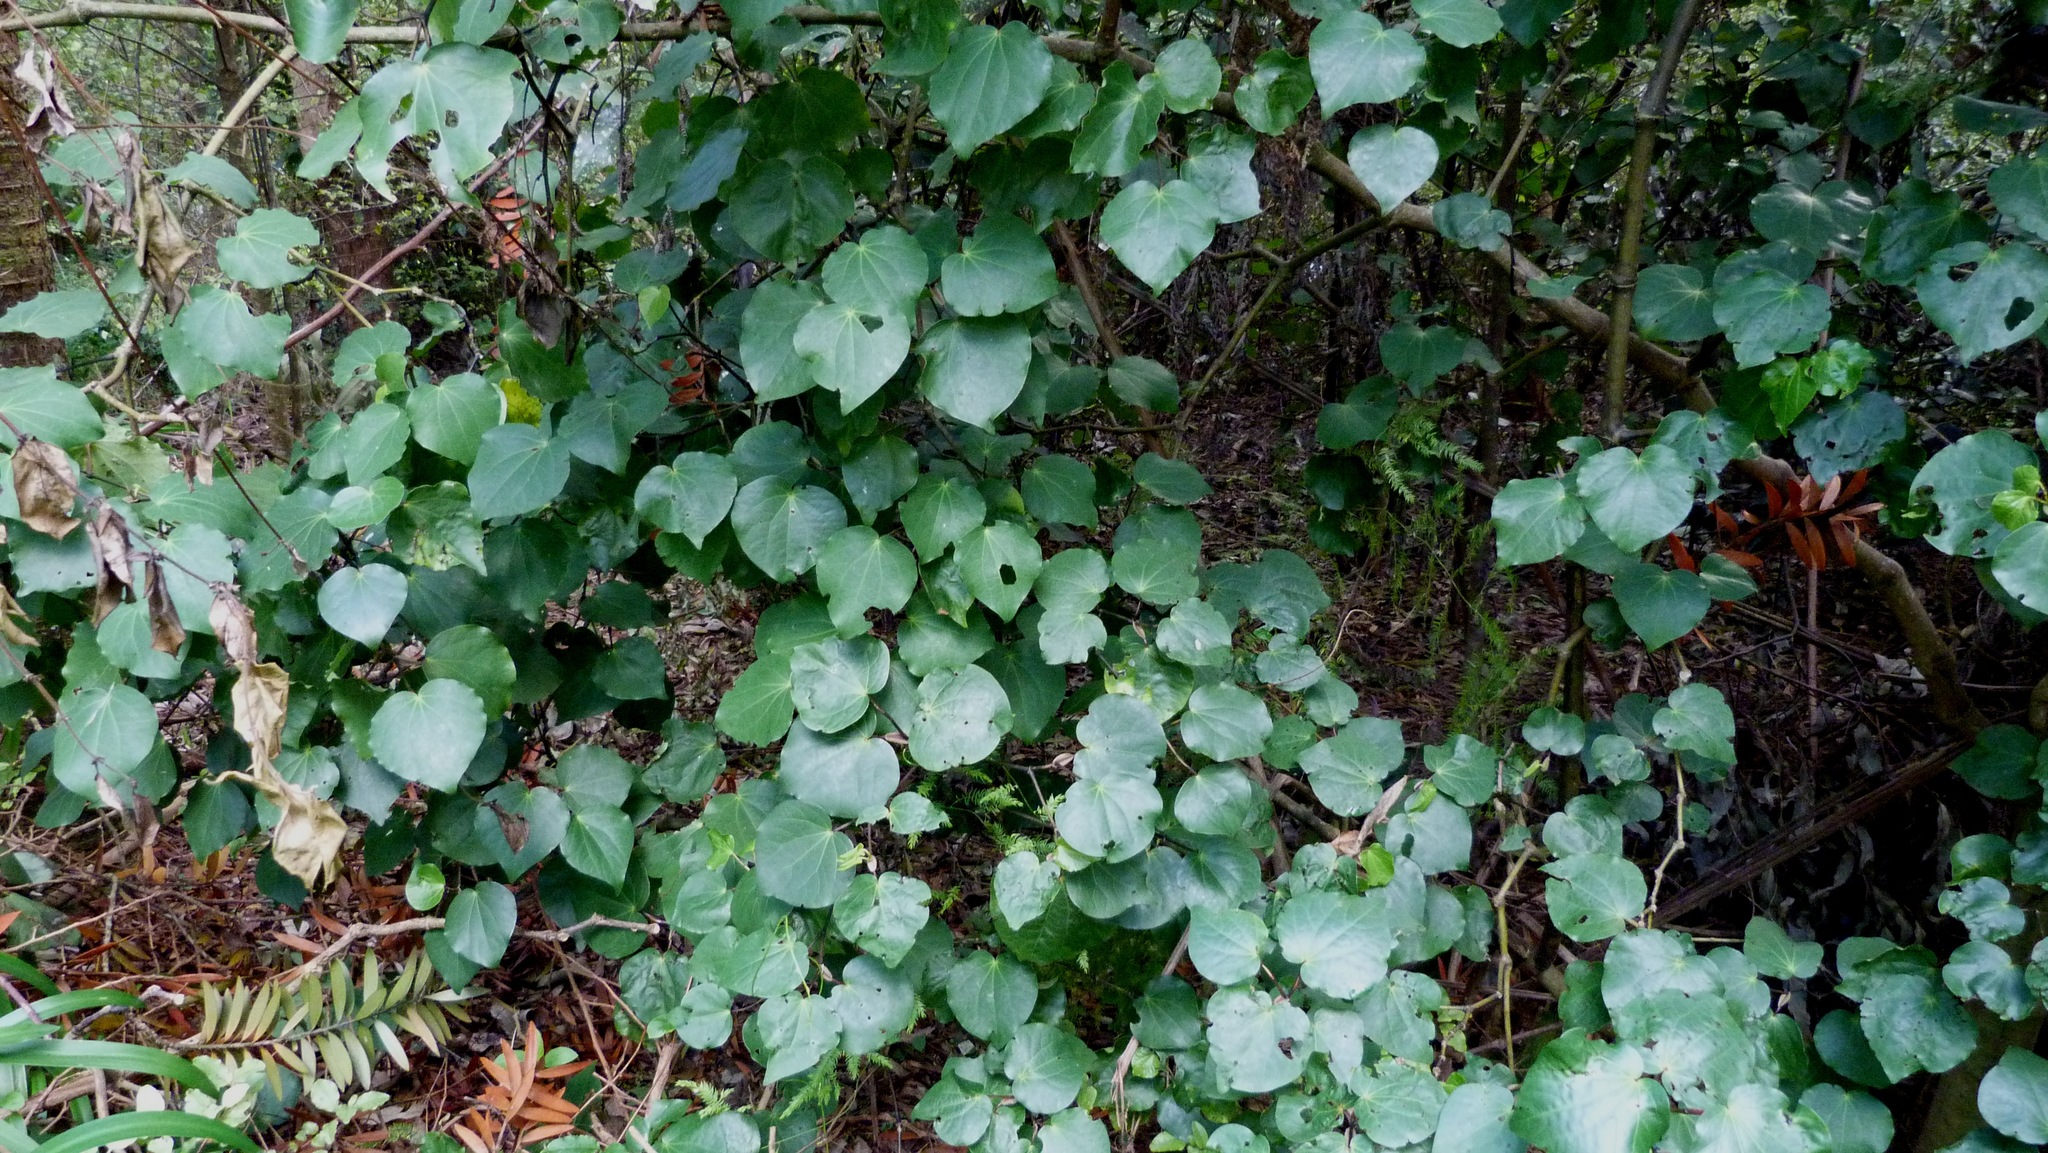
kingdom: Plantae
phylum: Tracheophyta
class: Magnoliopsida
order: Piperales
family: Piperaceae
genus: Macropiper
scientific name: Macropiper excelsum
